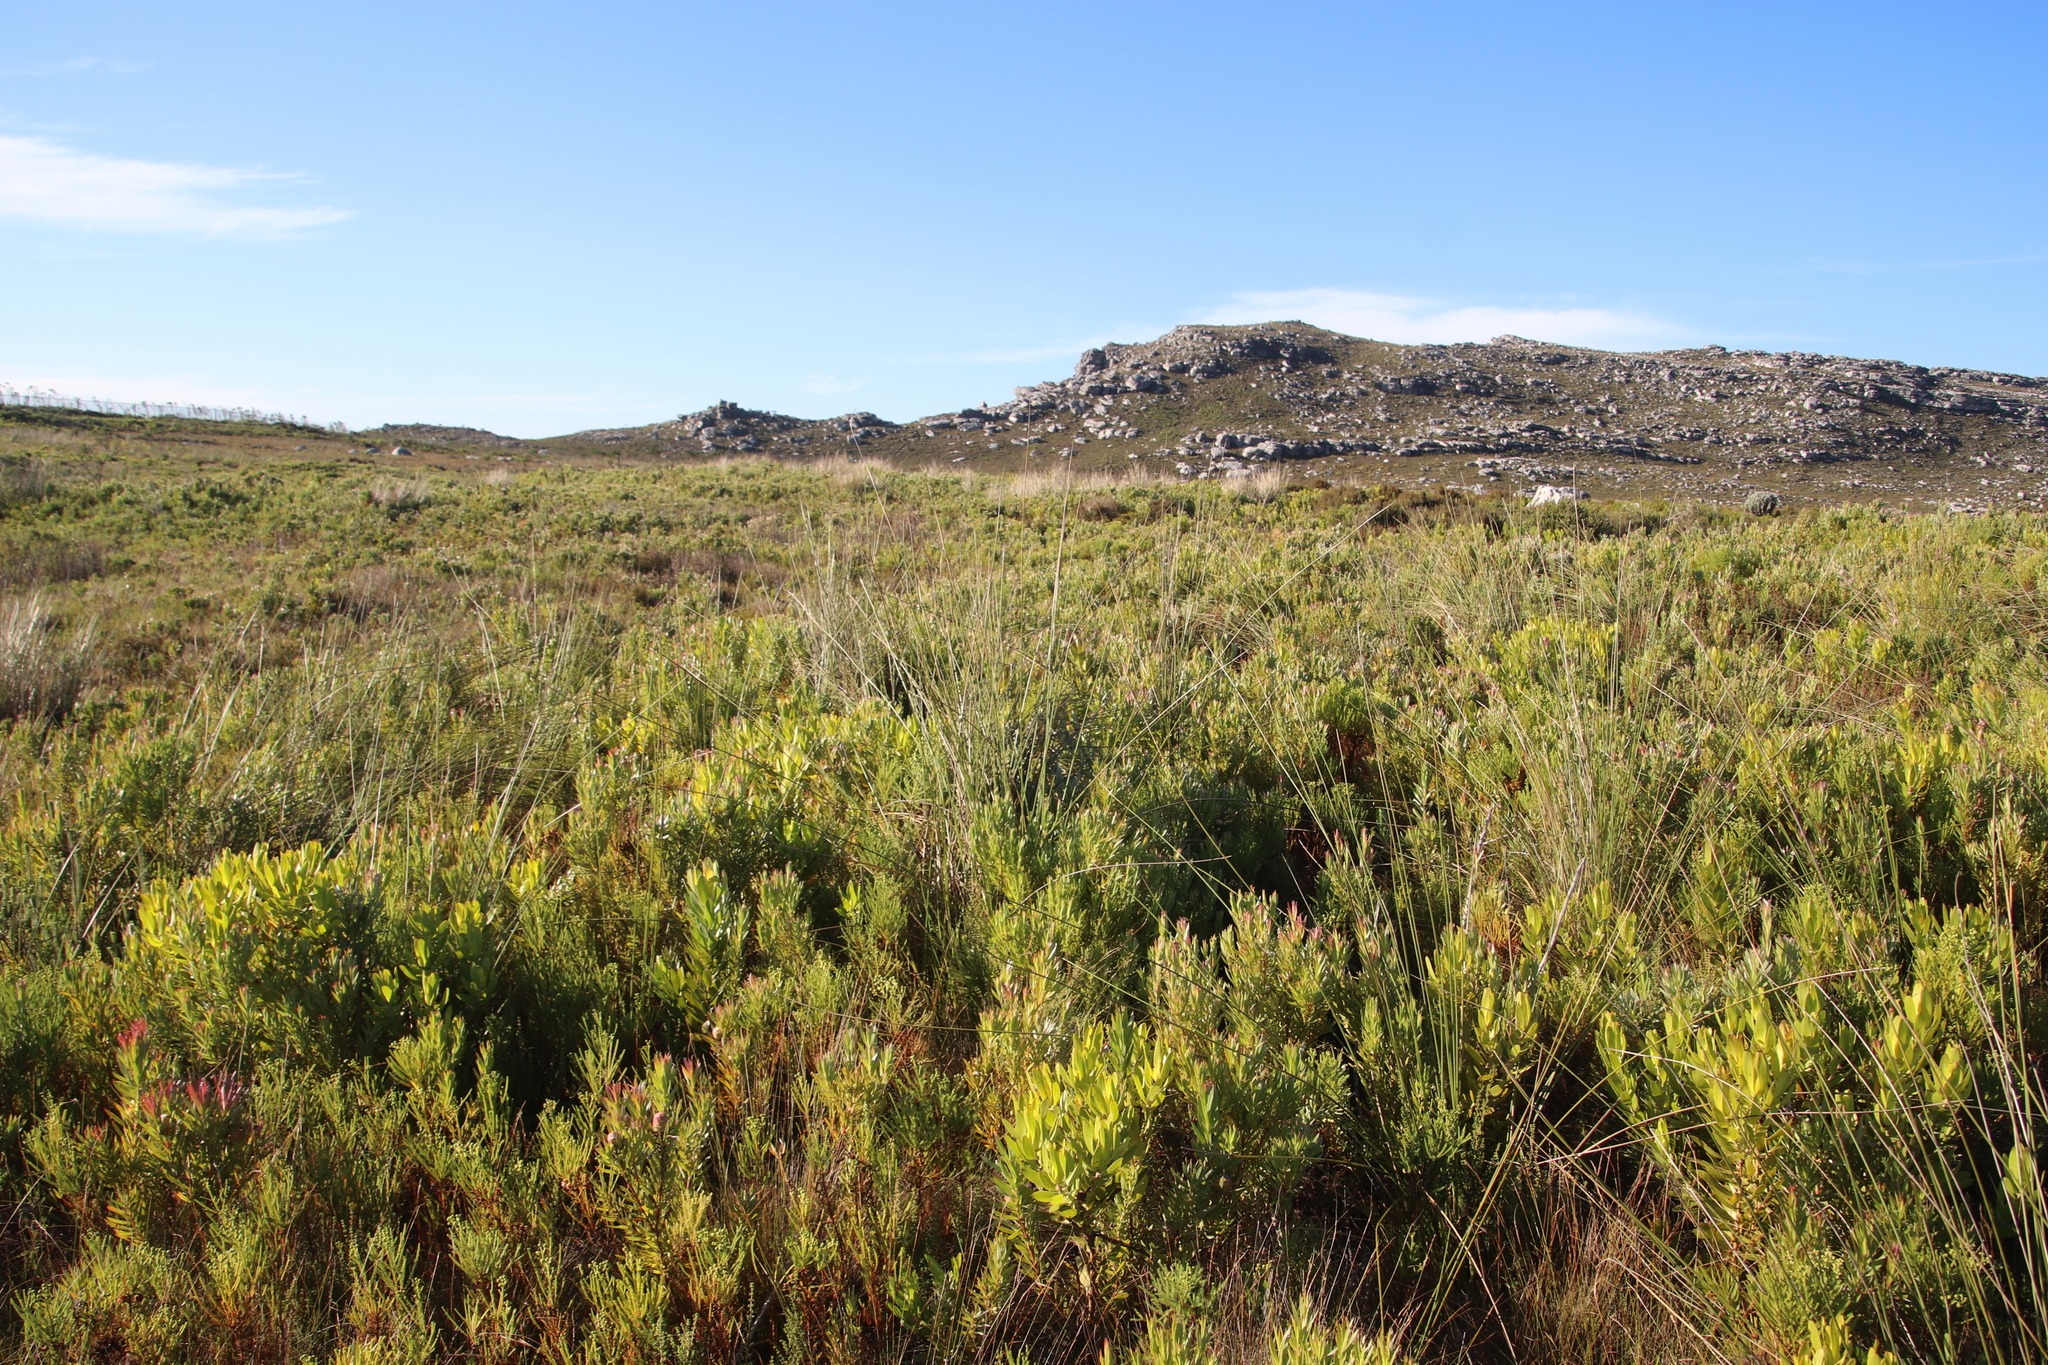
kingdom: Plantae
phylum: Tracheophyta
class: Liliopsida
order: Poales
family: Cyperaceae
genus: Neesenbeckia
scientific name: Neesenbeckia punctoria
